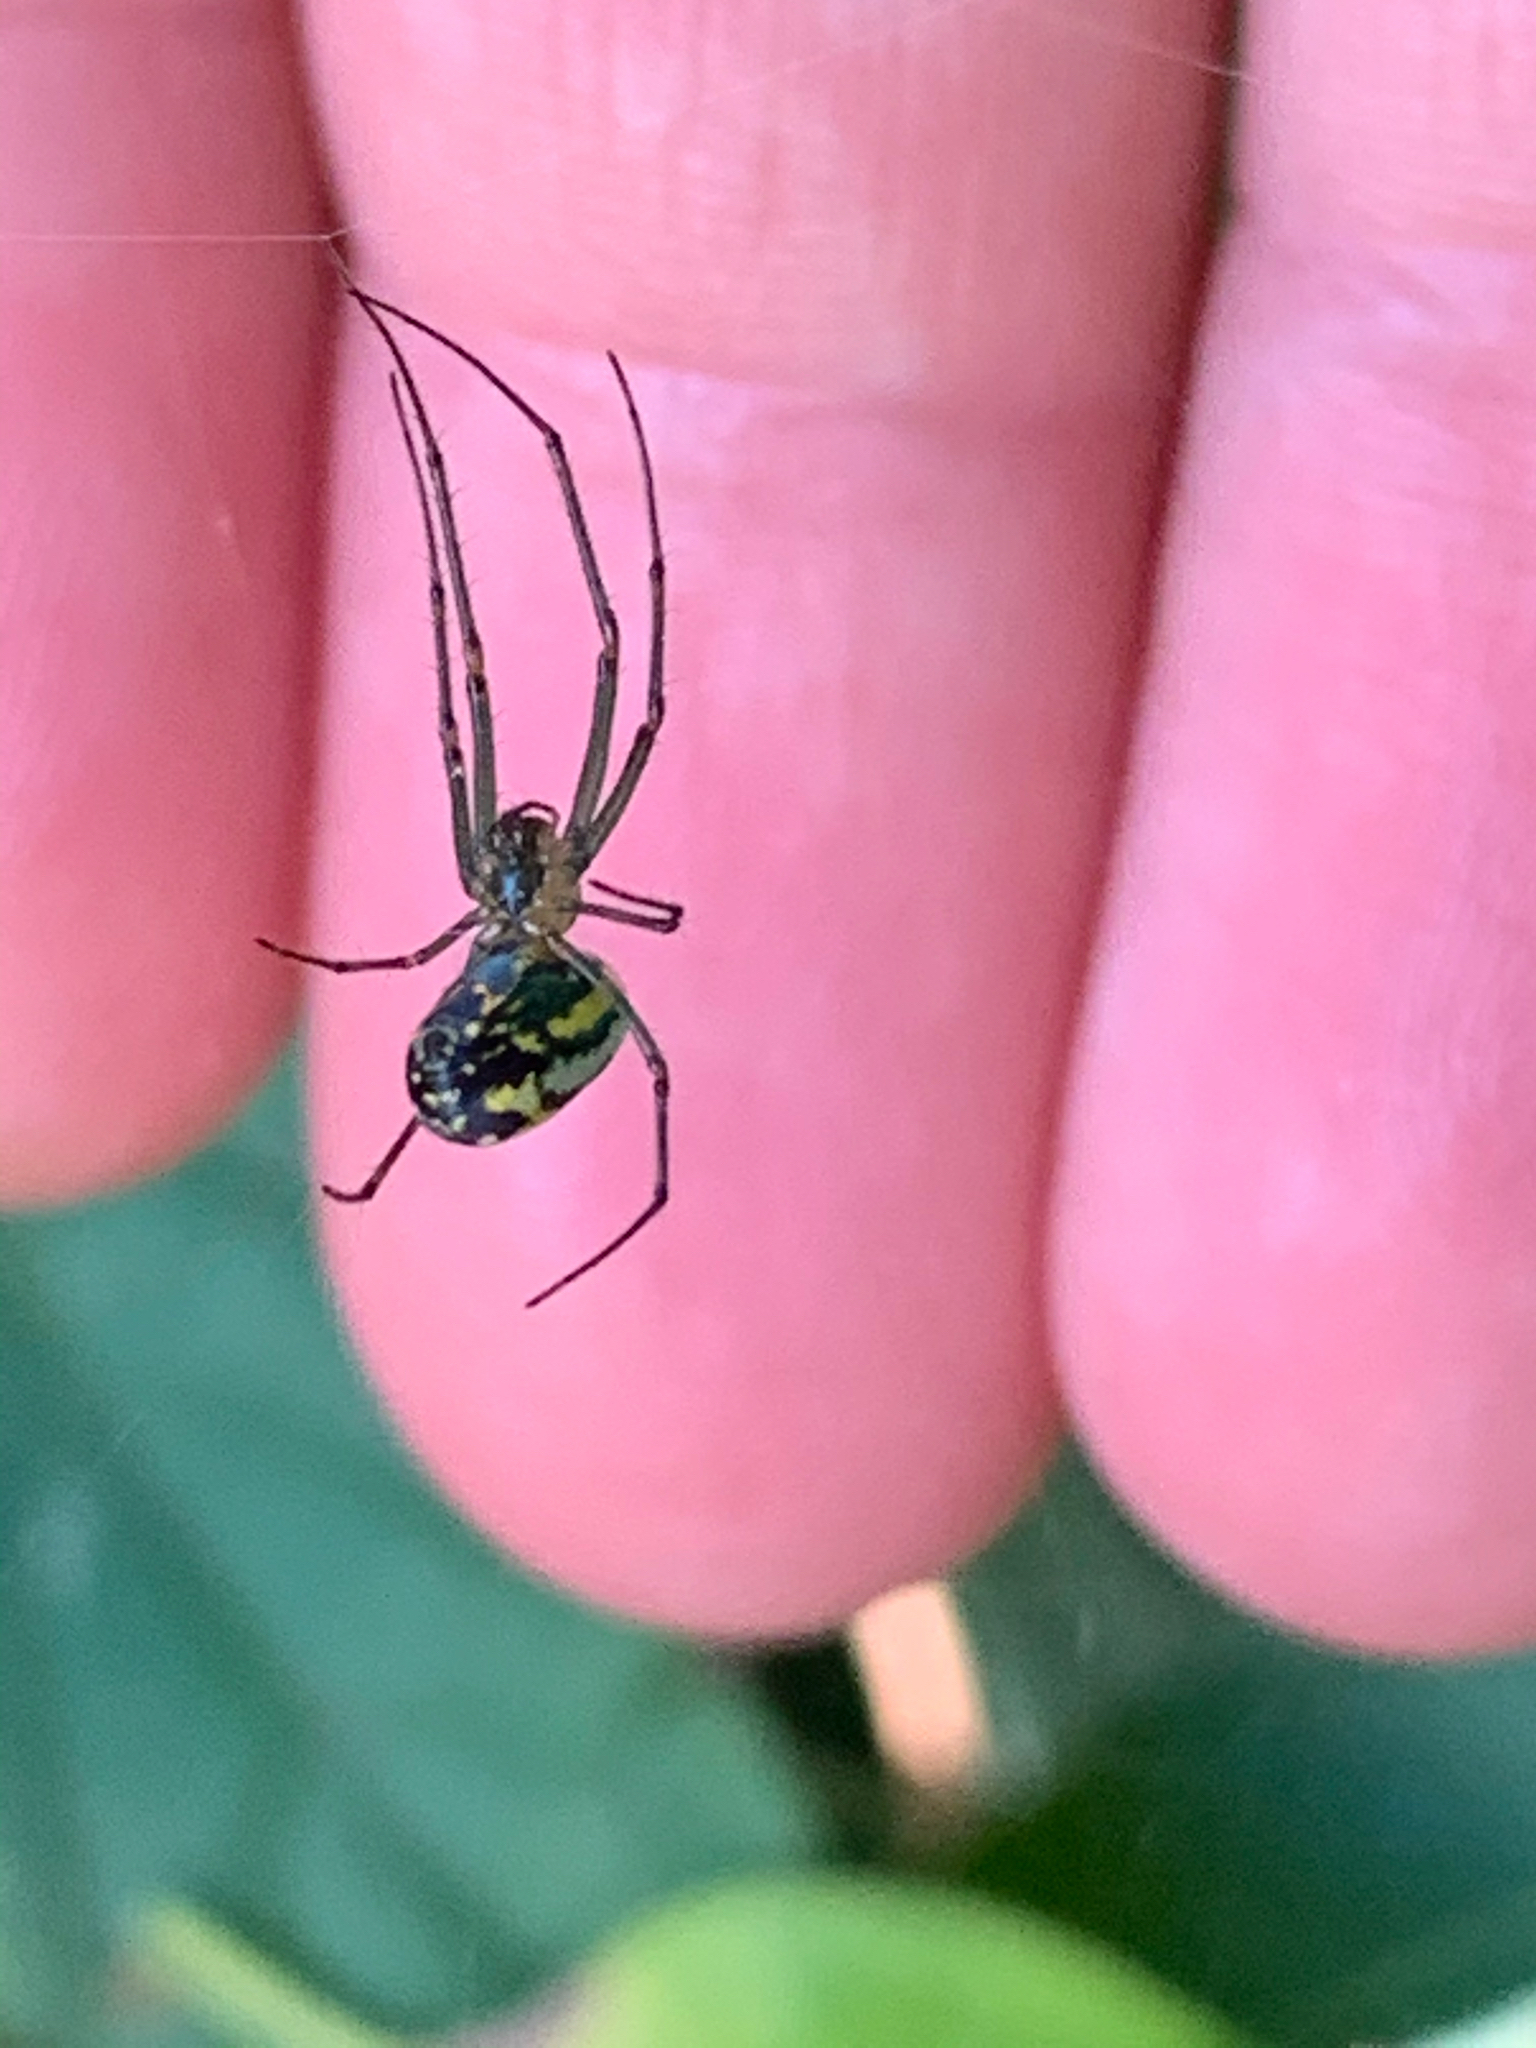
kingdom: Animalia
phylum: Arthropoda
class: Arachnida
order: Araneae
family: Tetragnathidae
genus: Leucauge
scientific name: Leucauge venusta
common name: Longjawed orb weavers
